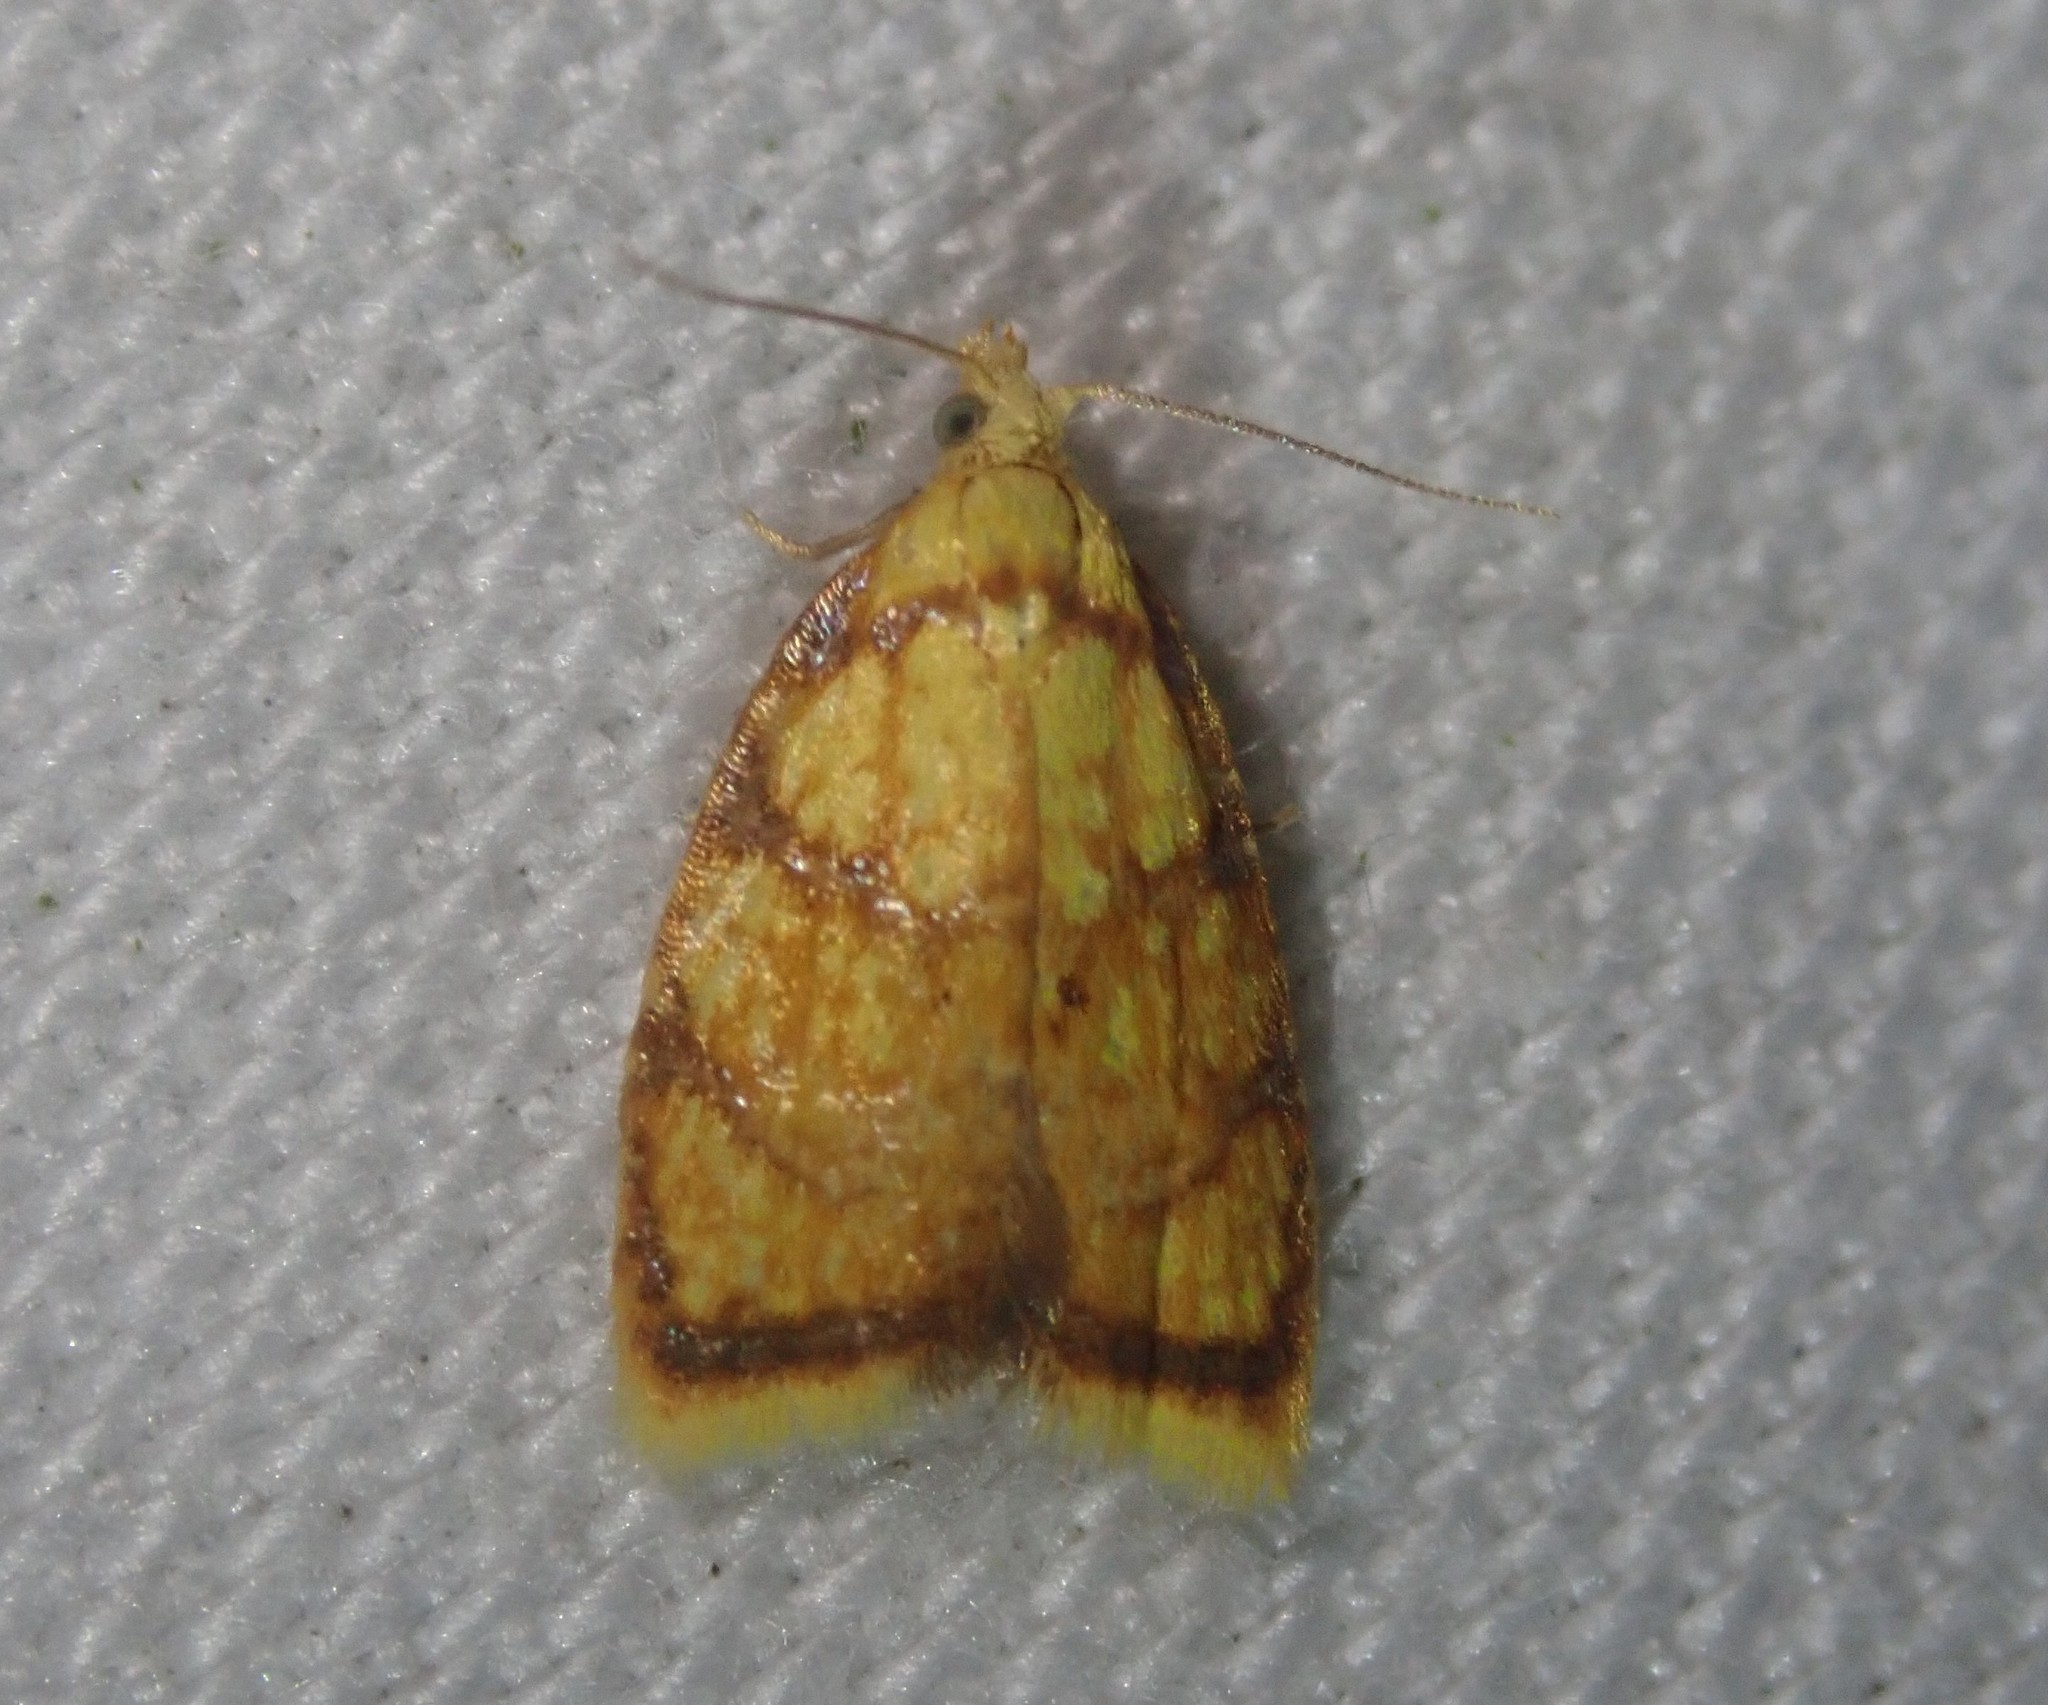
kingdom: Animalia
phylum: Arthropoda
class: Insecta
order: Lepidoptera
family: Tortricidae
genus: Acleris
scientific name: Acleris bergmanniana
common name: Yellow rose button
